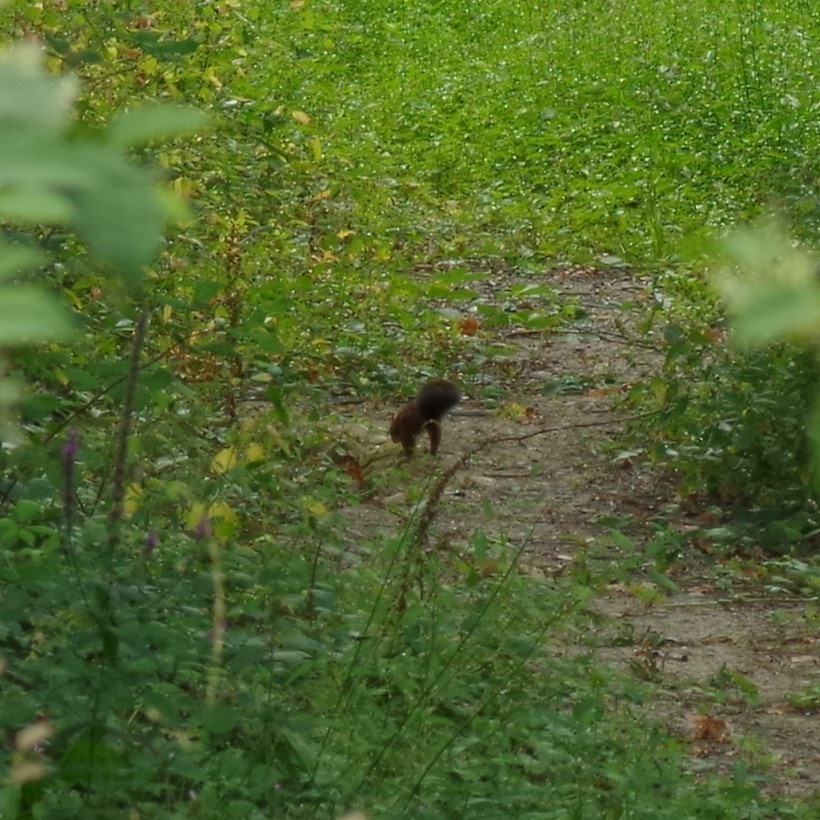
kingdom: Animalia
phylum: Chordata
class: Mammalia
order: Rodentia
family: Sciuridae
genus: Sciurus
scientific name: Sciurus vulgaris
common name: Eurasian red squirrel
